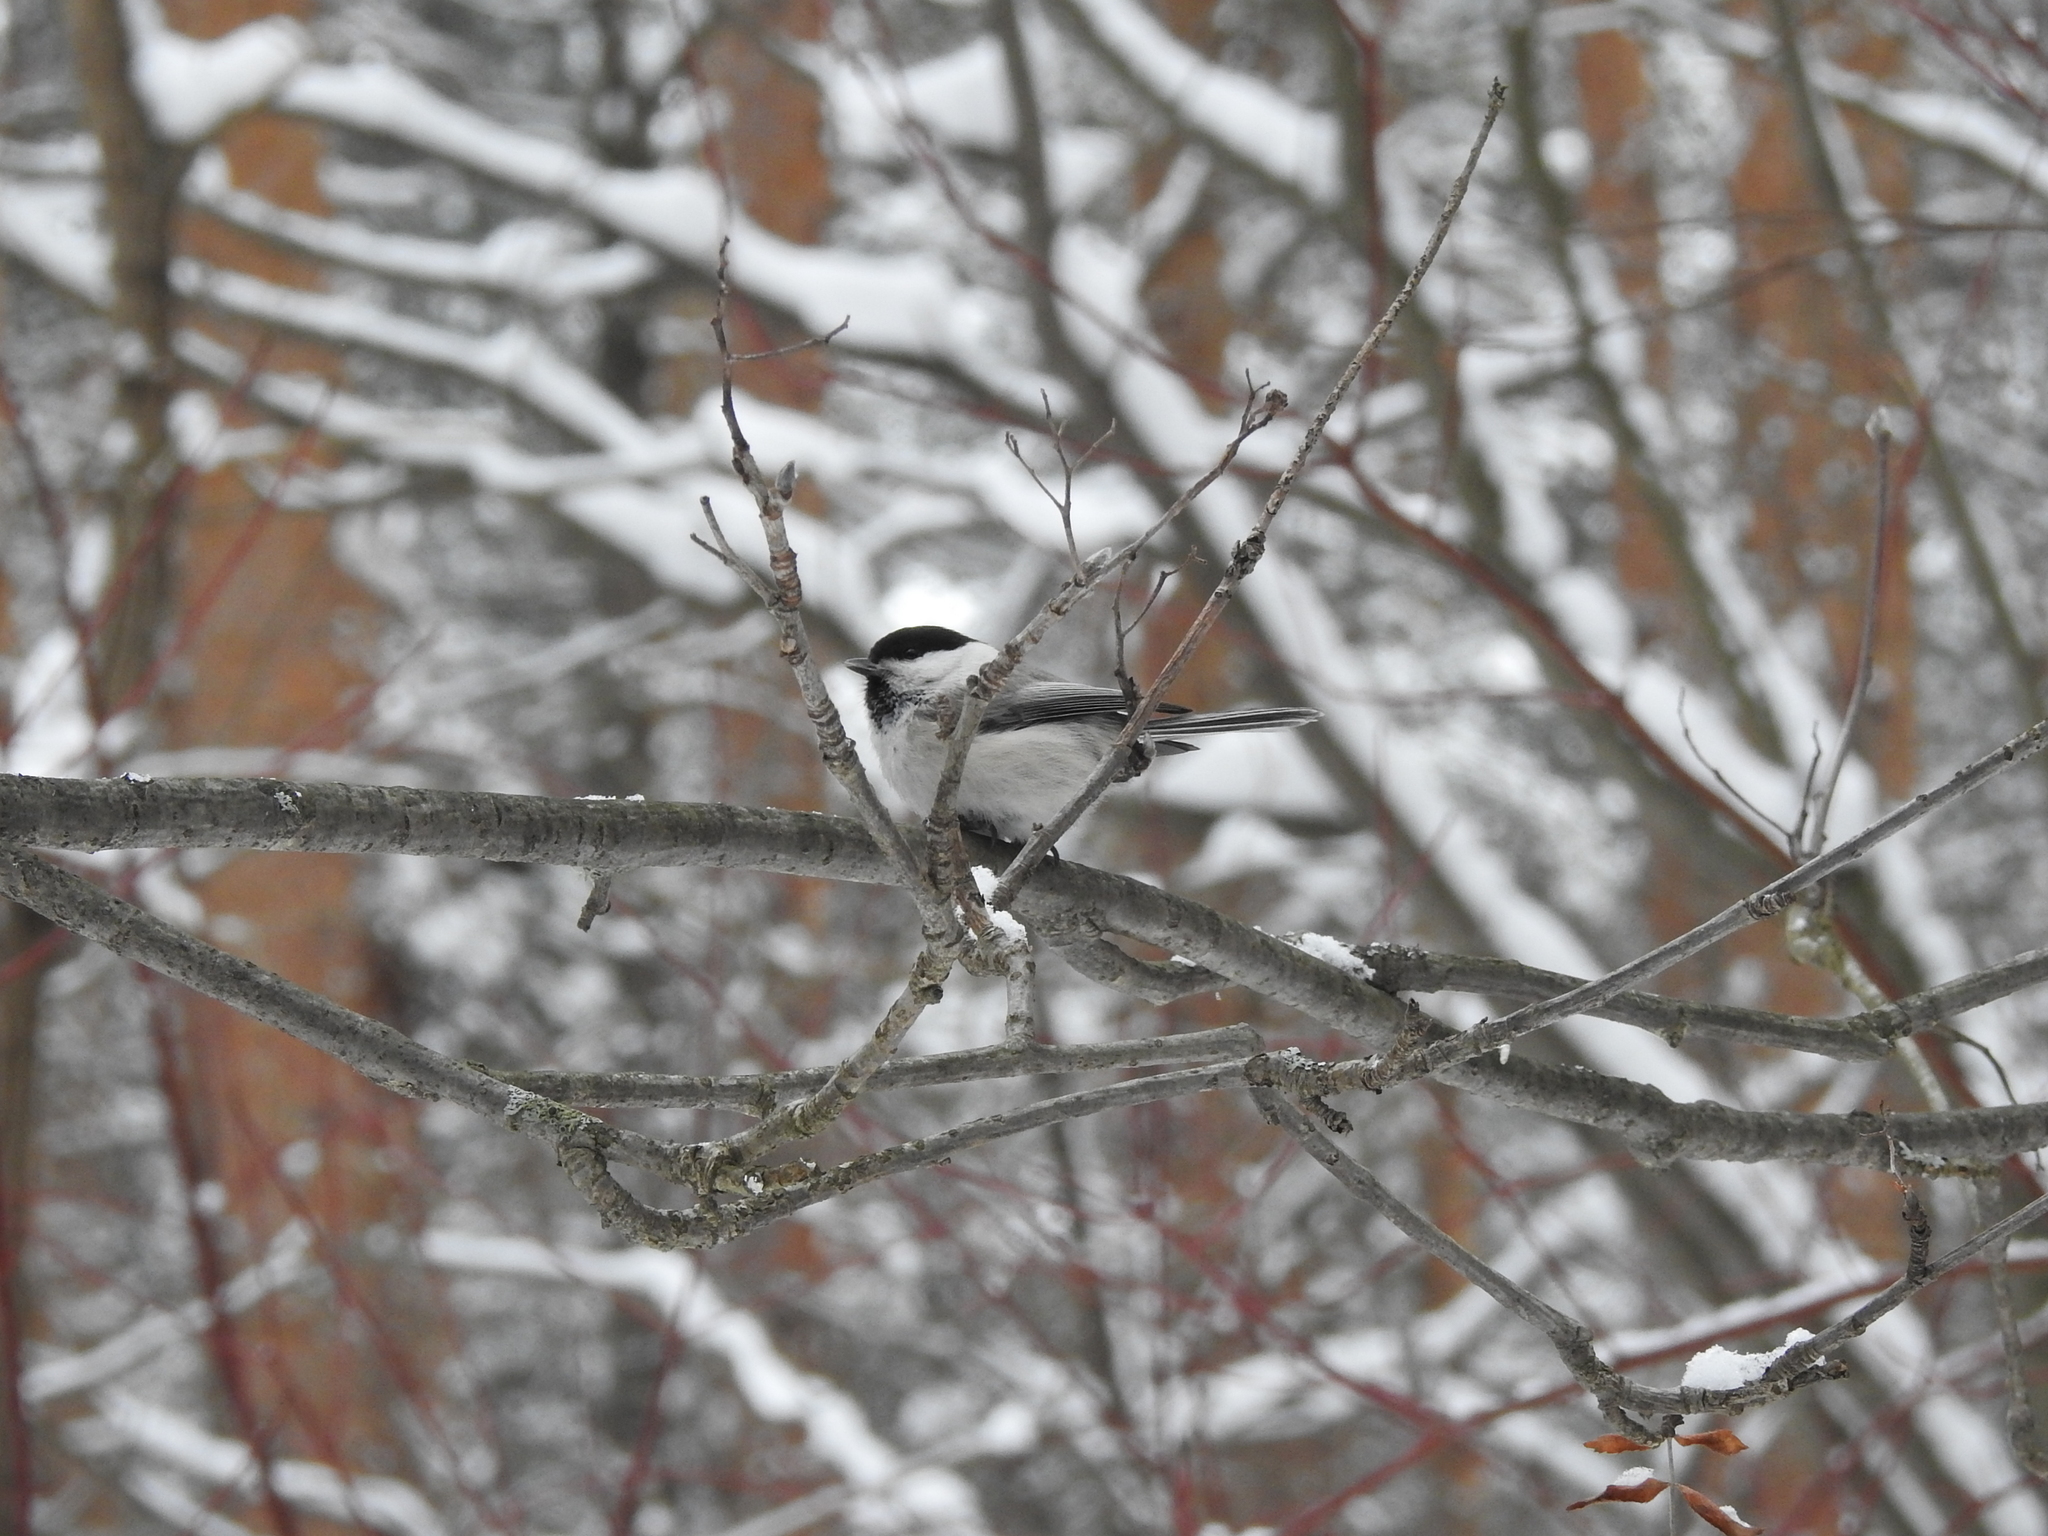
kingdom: Animalia
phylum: Chordata
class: Aves
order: Passeriformes
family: Paridae
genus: Poecile
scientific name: Poecile montanus
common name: Willow tit
